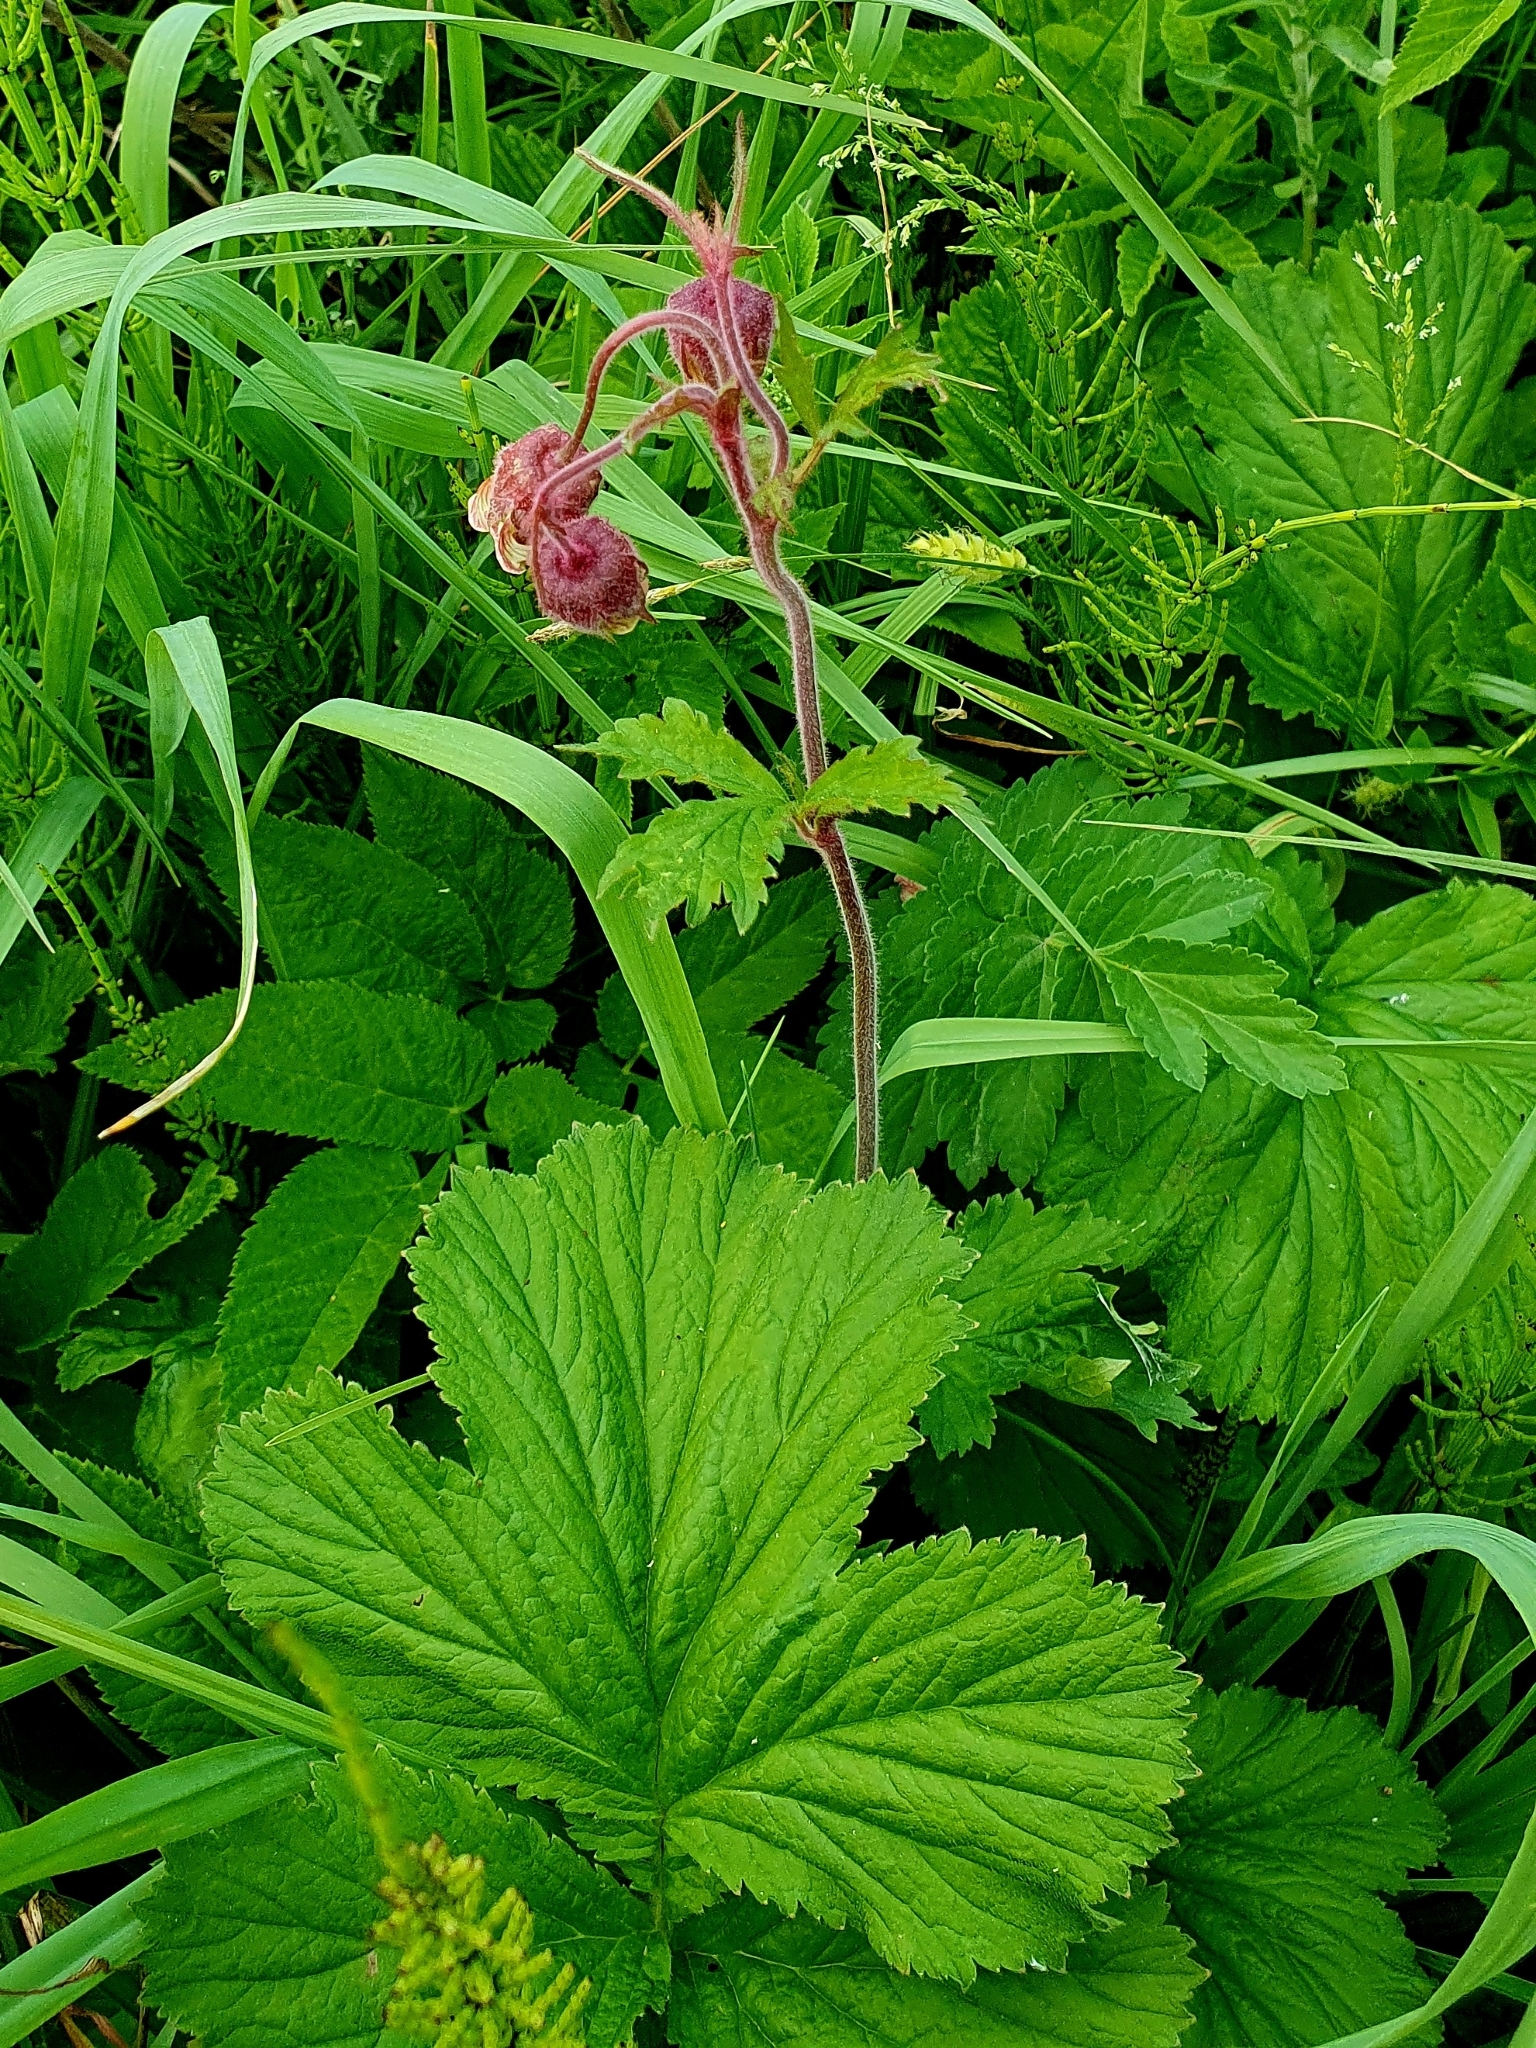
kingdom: Plantae
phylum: Tracheophyta
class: Magnoliopsida
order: Rosales
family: Rosaceae
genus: Geum
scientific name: Geum rivale
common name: Water avens
